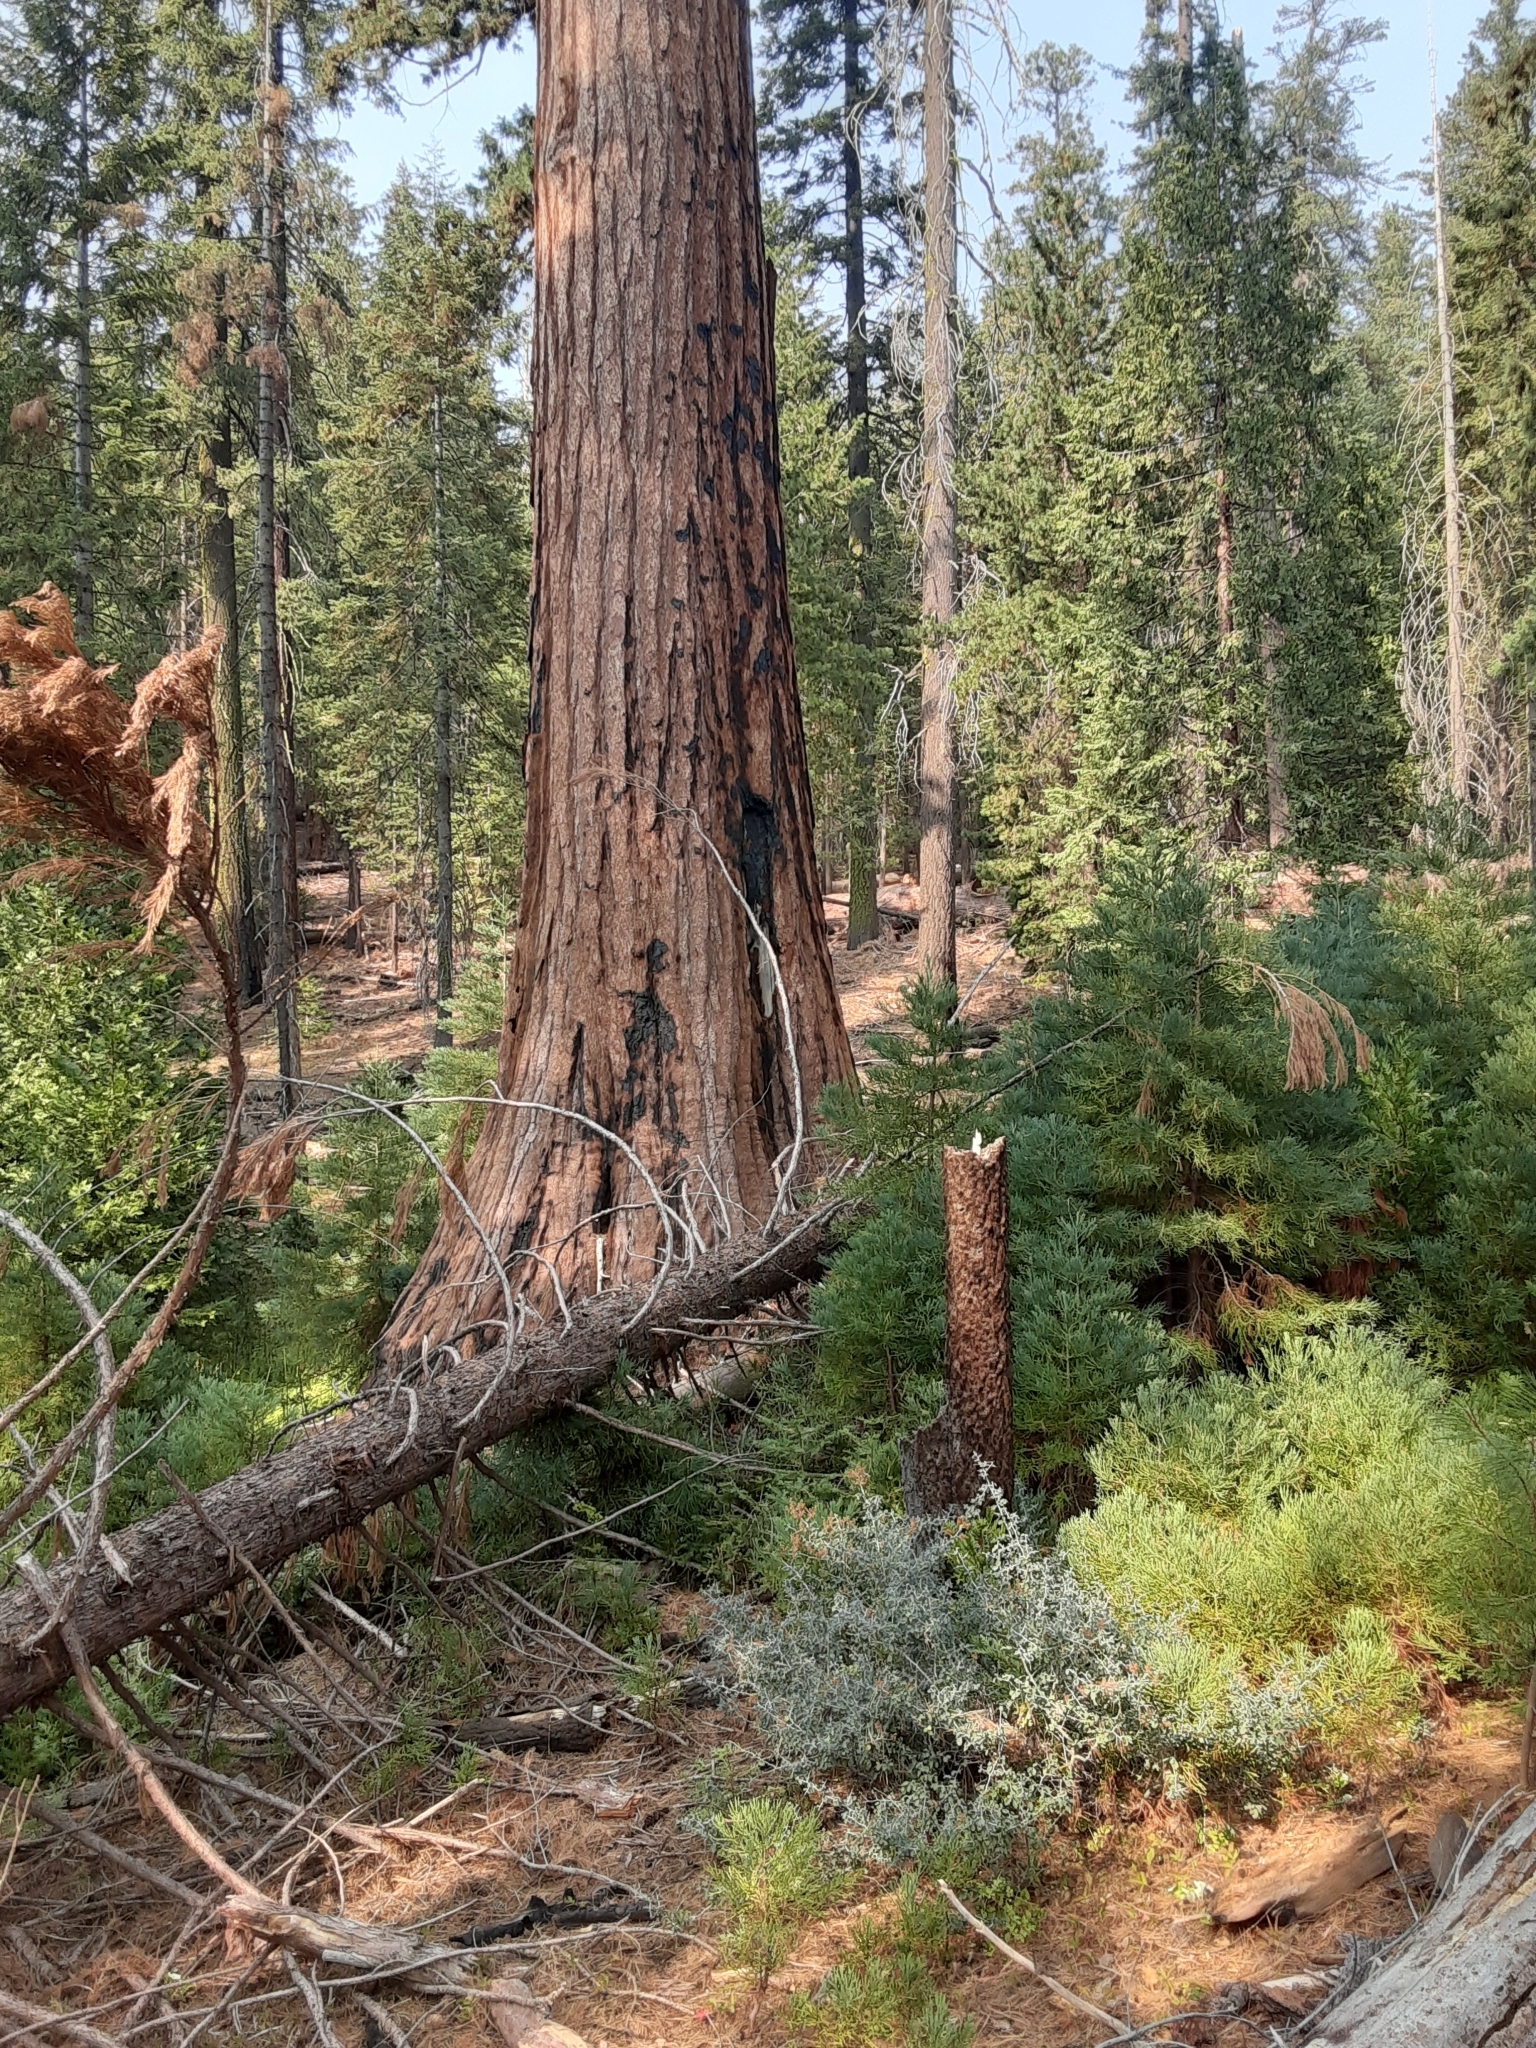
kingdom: Plantae
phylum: Tracheophyta
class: Pinopsida
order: Pinales
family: Cupressaceae
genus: Sequoiadendron
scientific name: Sequoiadendron giganteum
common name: Wellingtonia
